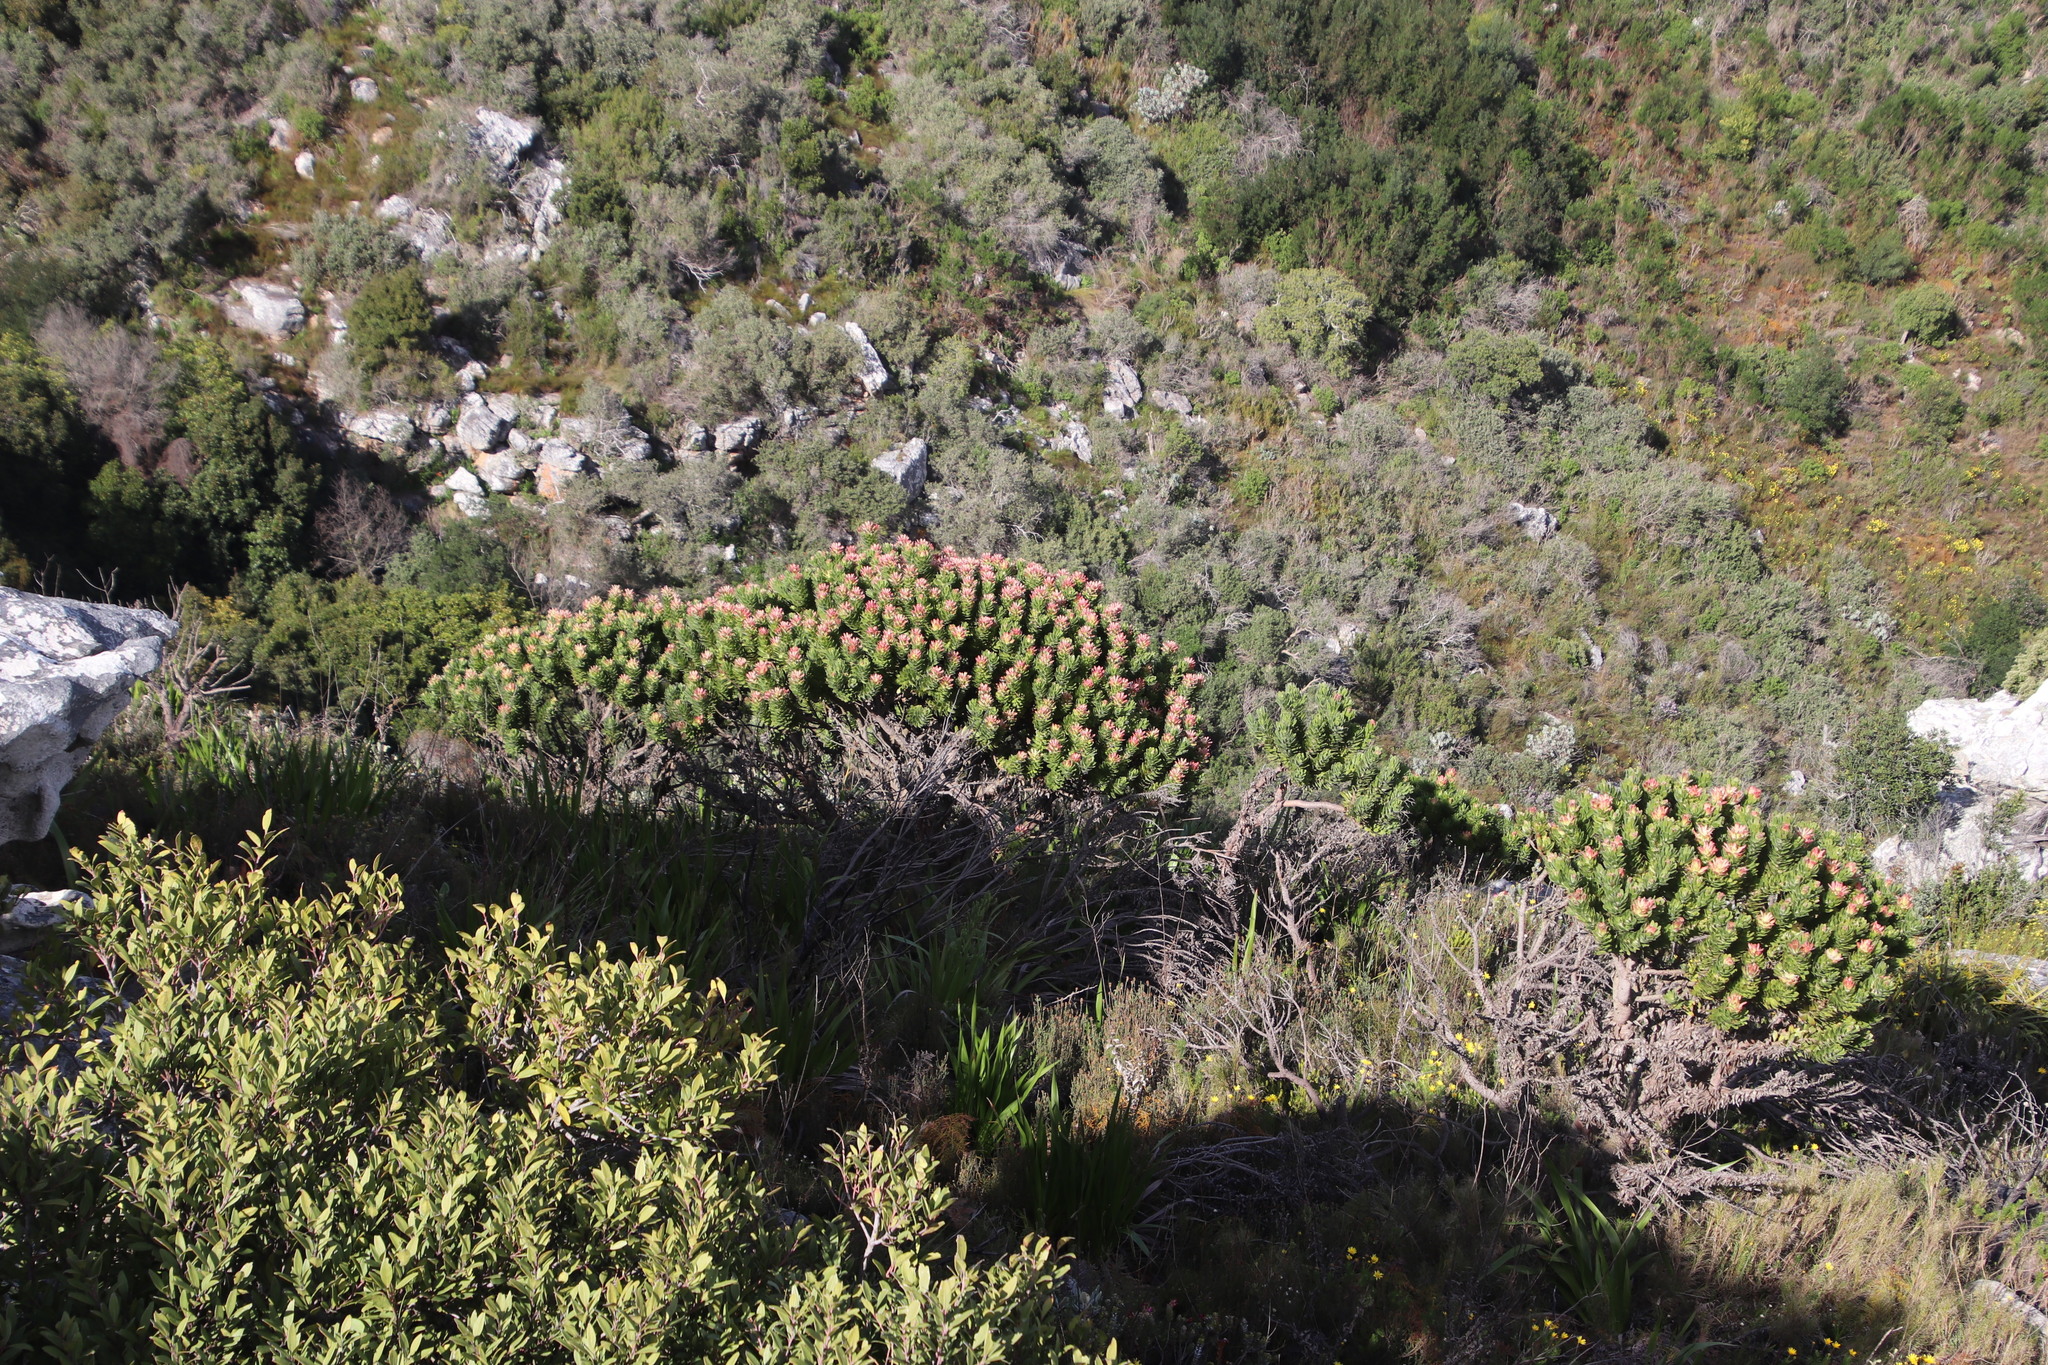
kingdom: Plantae
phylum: Tracheophyta
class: Magnoliopsida
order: Proteales
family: Proteaceae
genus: Mimetes
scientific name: Mimetes fimbriifolius
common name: Fringed bottlebrush
